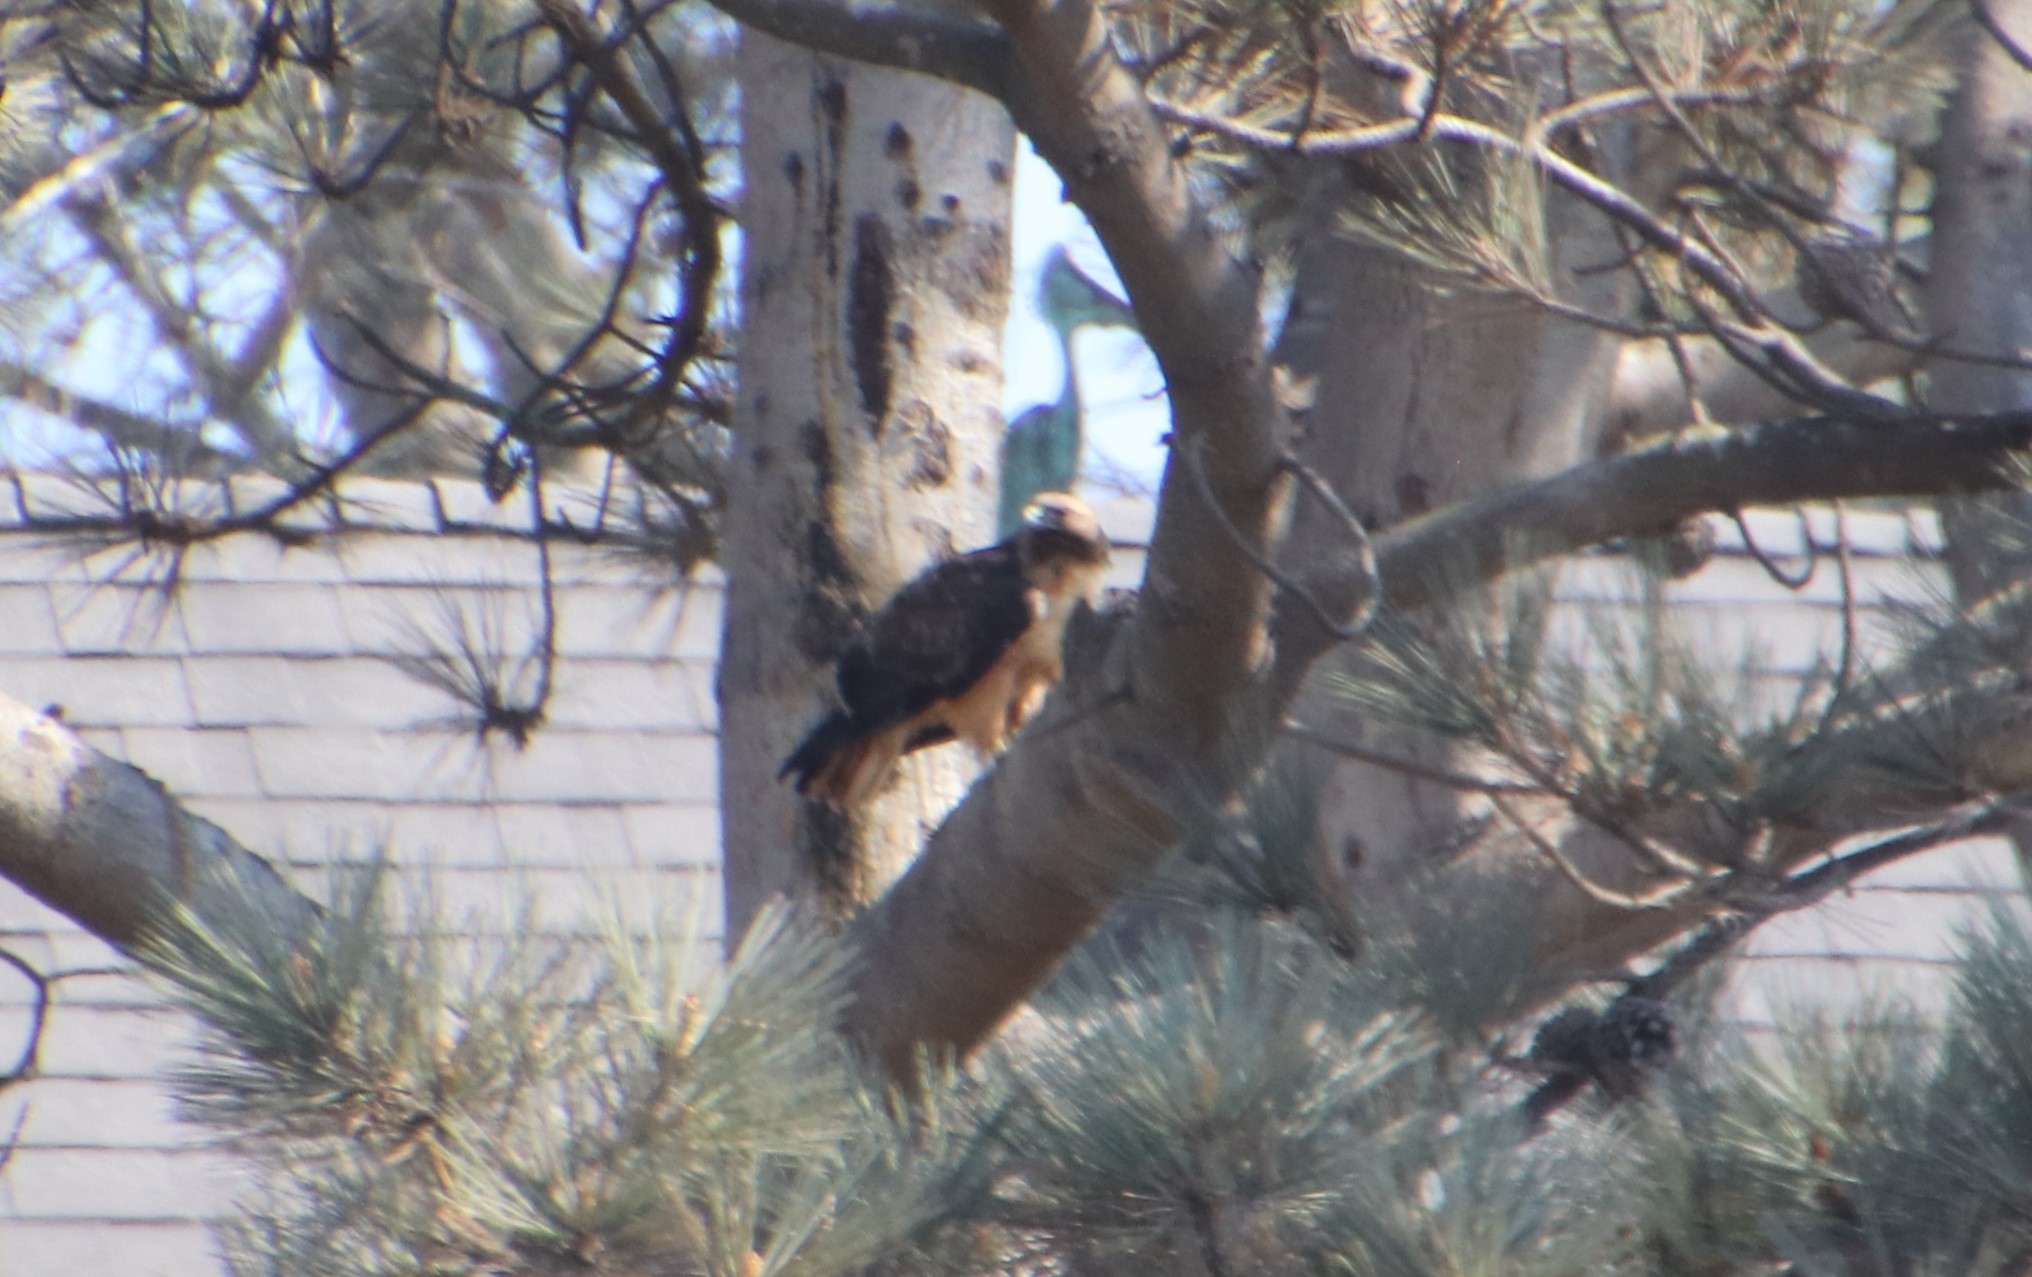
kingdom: Animalia
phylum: Chordata
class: Aves
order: Accipitriformes
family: Accipitridae
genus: Buteo
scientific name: Buteo jamaicensis
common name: Red-tailed hawk
